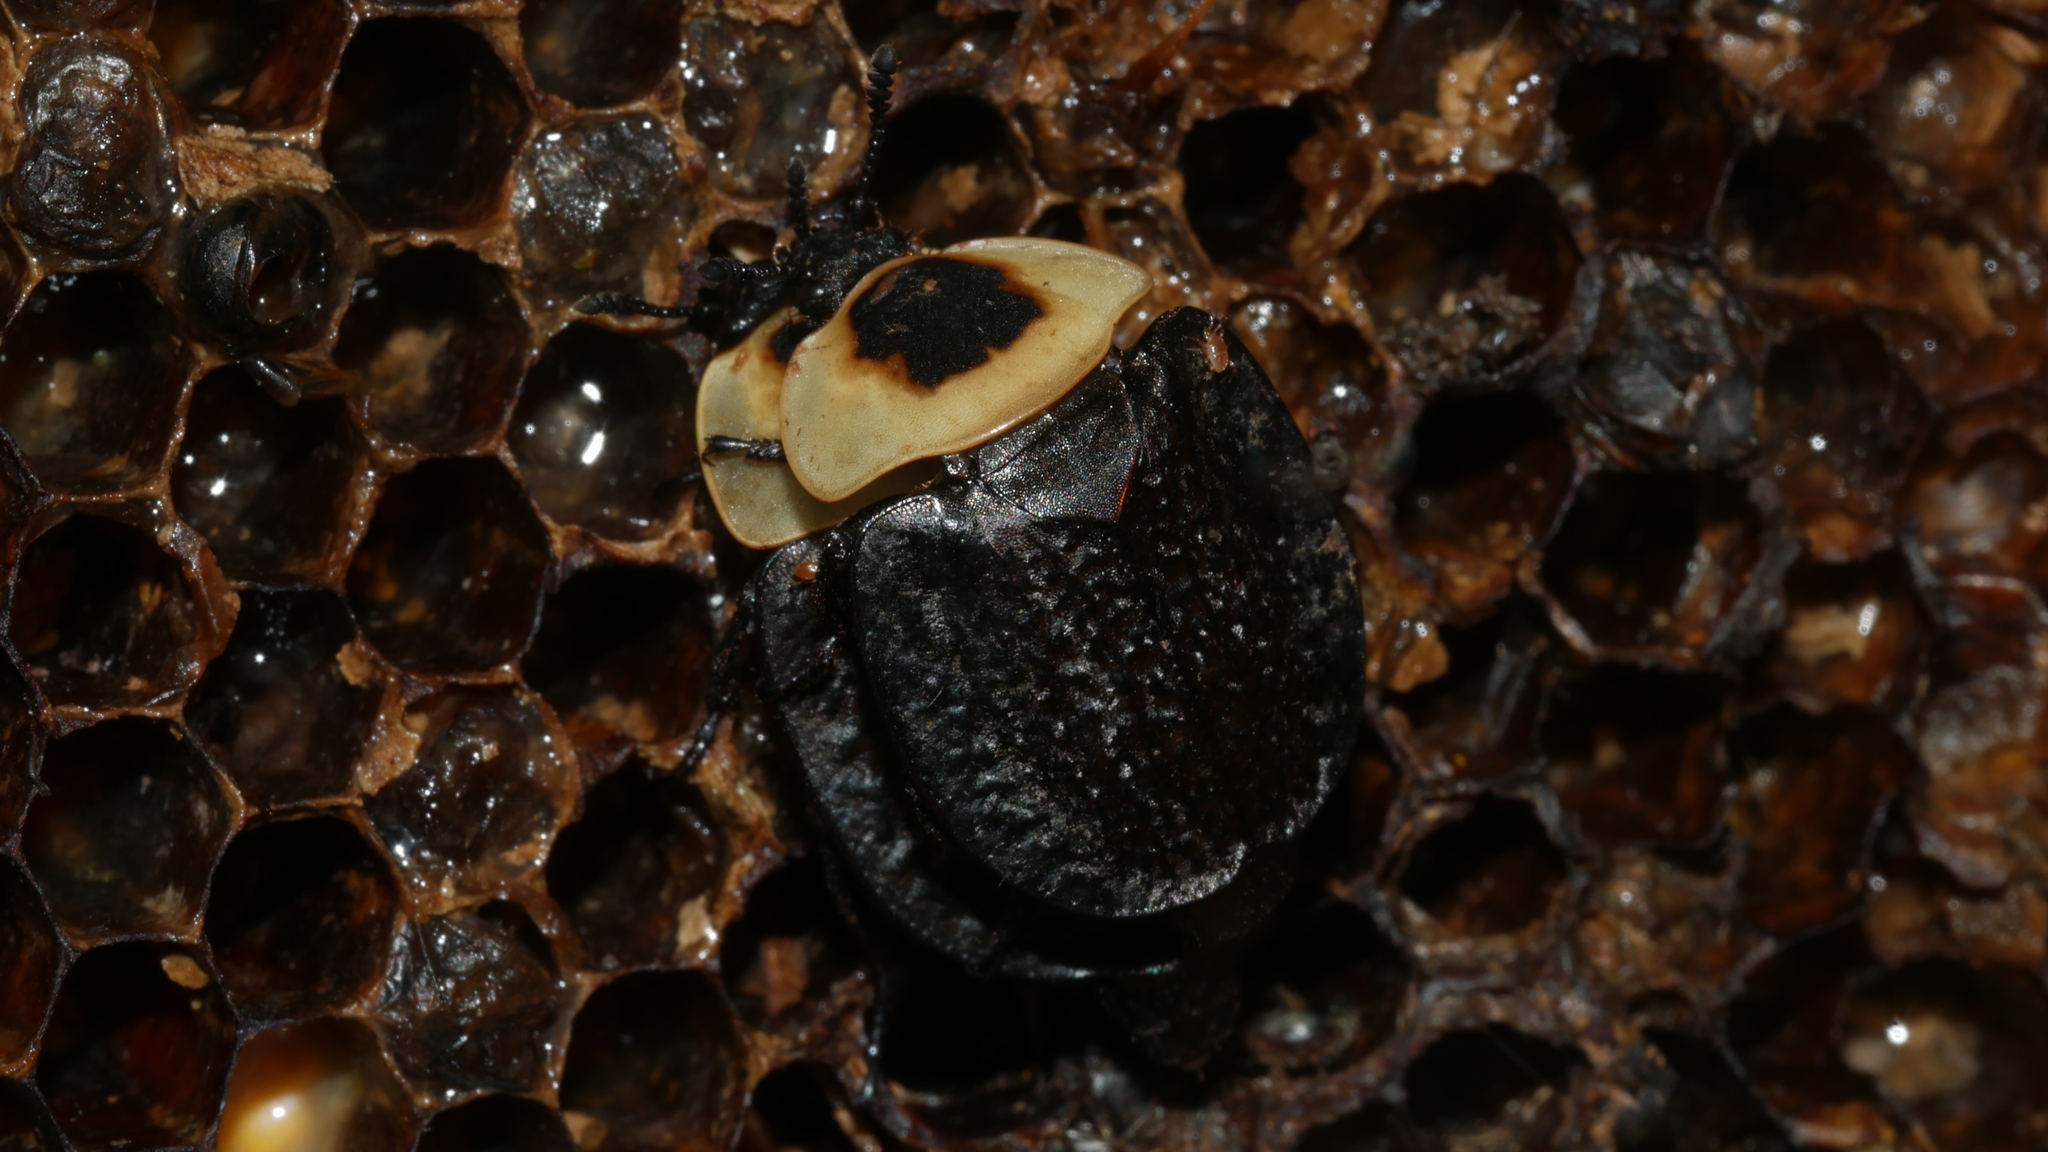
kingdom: Animalia
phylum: Arthropoda
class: Insecta
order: Coleoptera
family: Staphylinidae
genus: Necrophila
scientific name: Necrophila americana
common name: American carrion beetle
